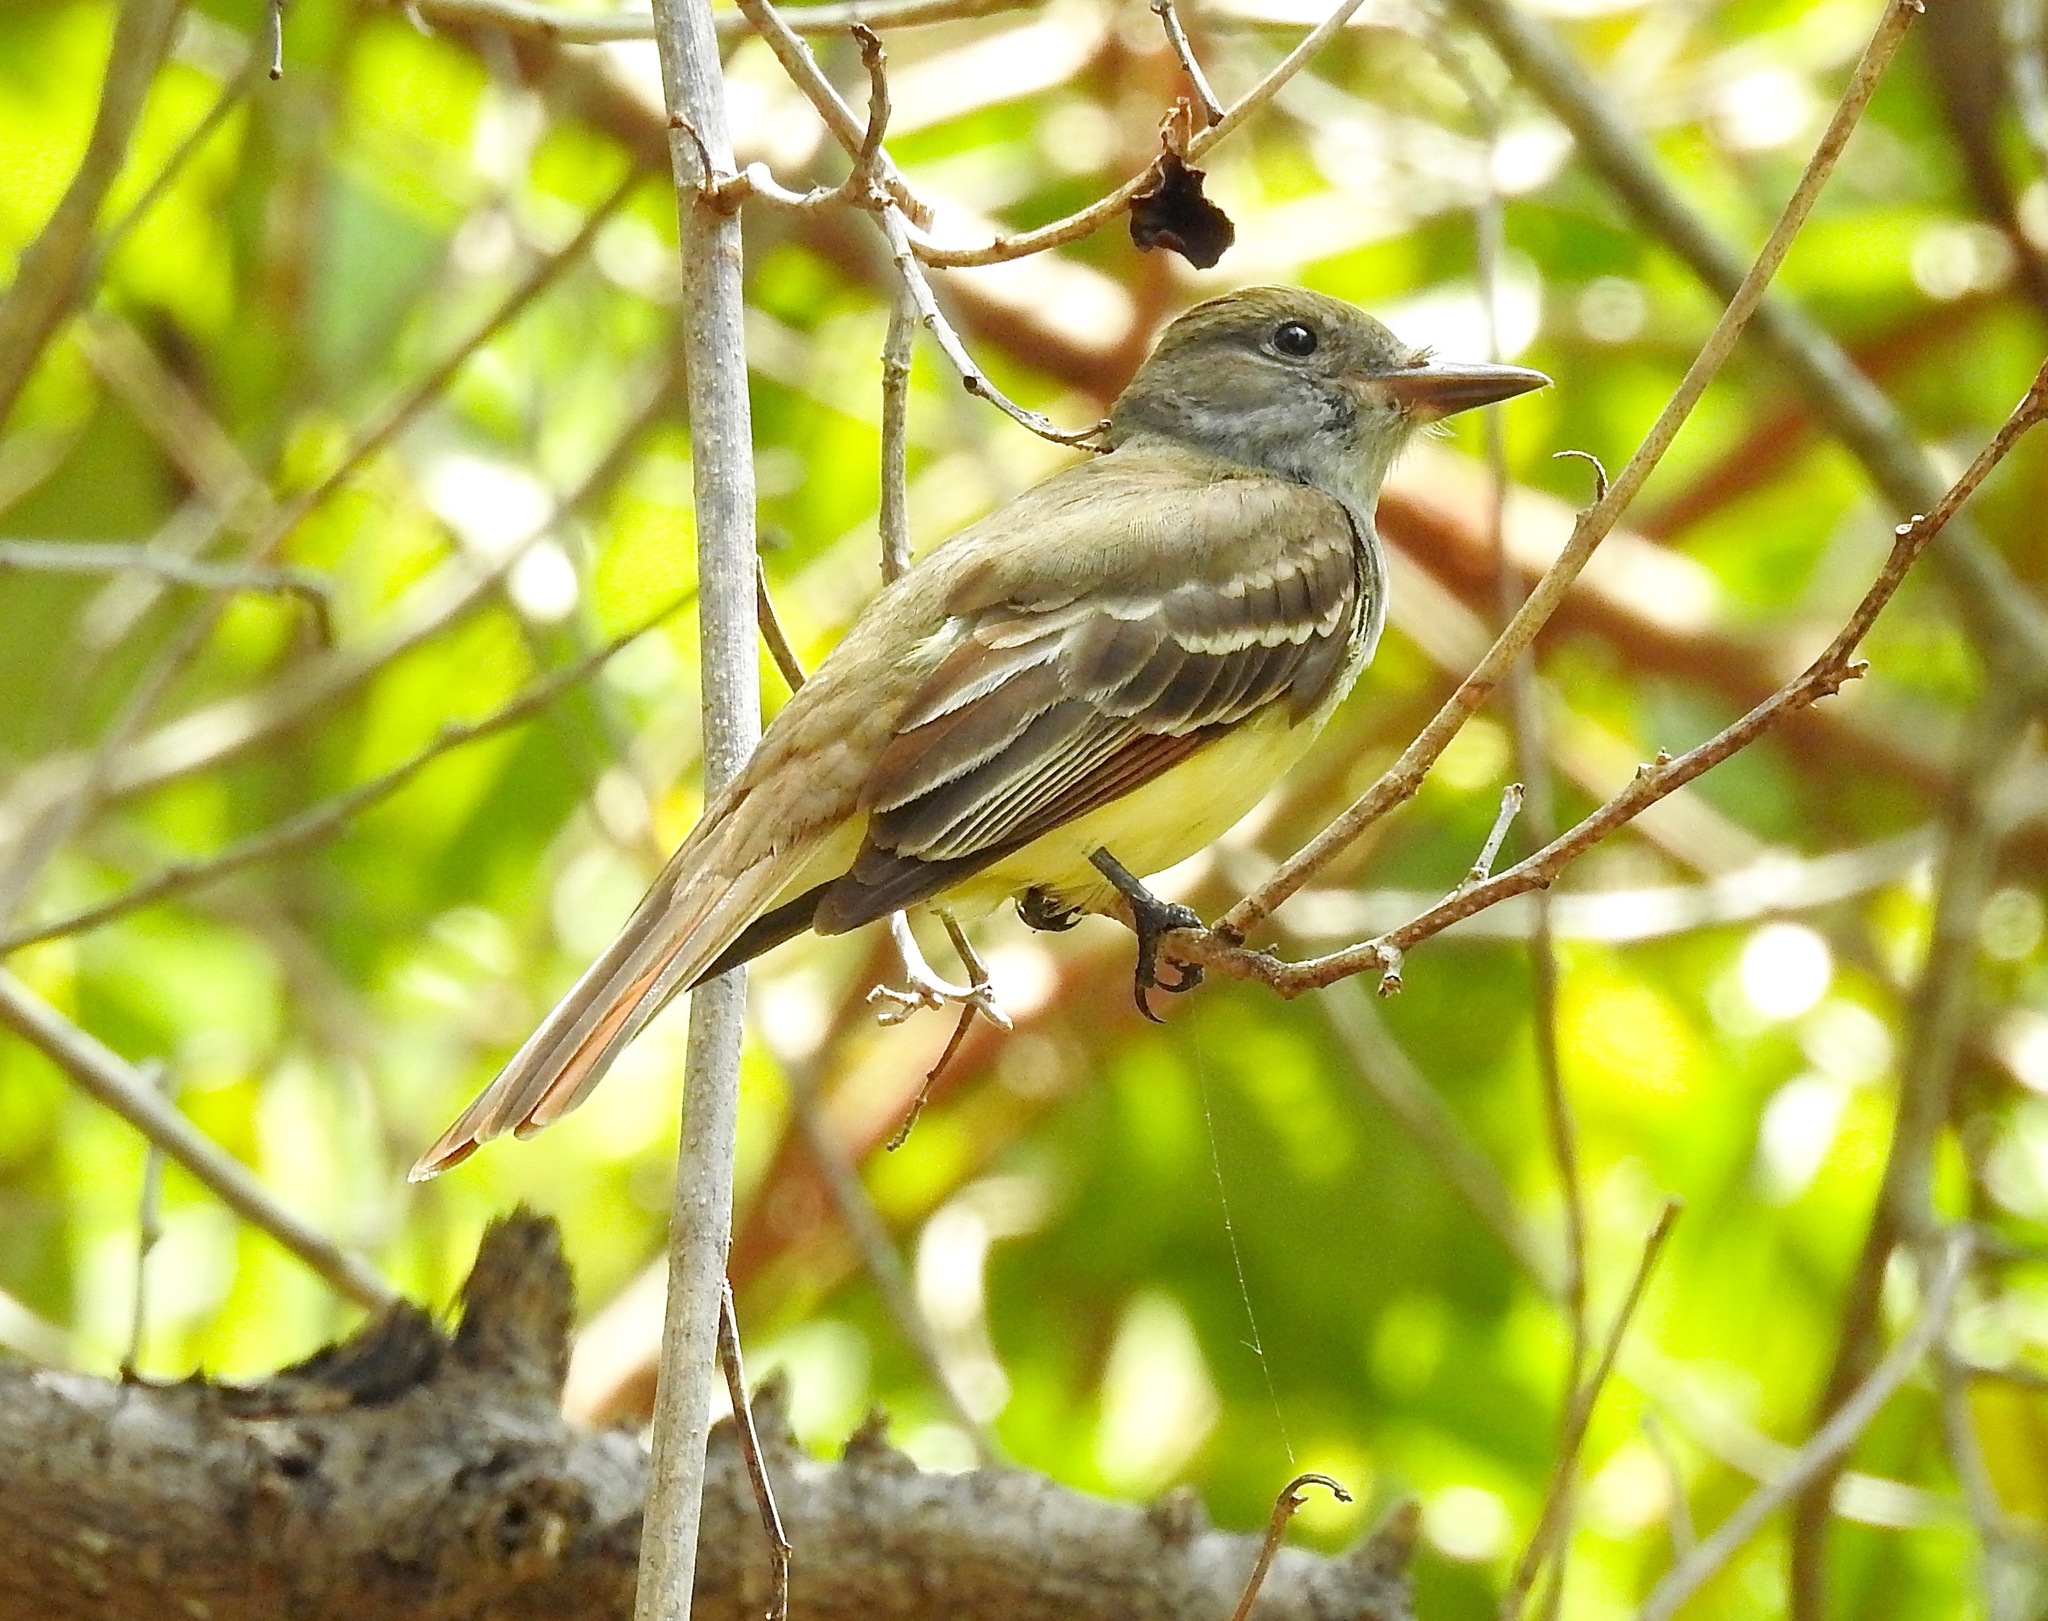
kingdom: Animalia
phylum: Chordata
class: Aves
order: Passeriformes
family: Tyrannidae
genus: Myiarchus
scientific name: Myiarchus crinitus
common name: Great crested flycatcher
